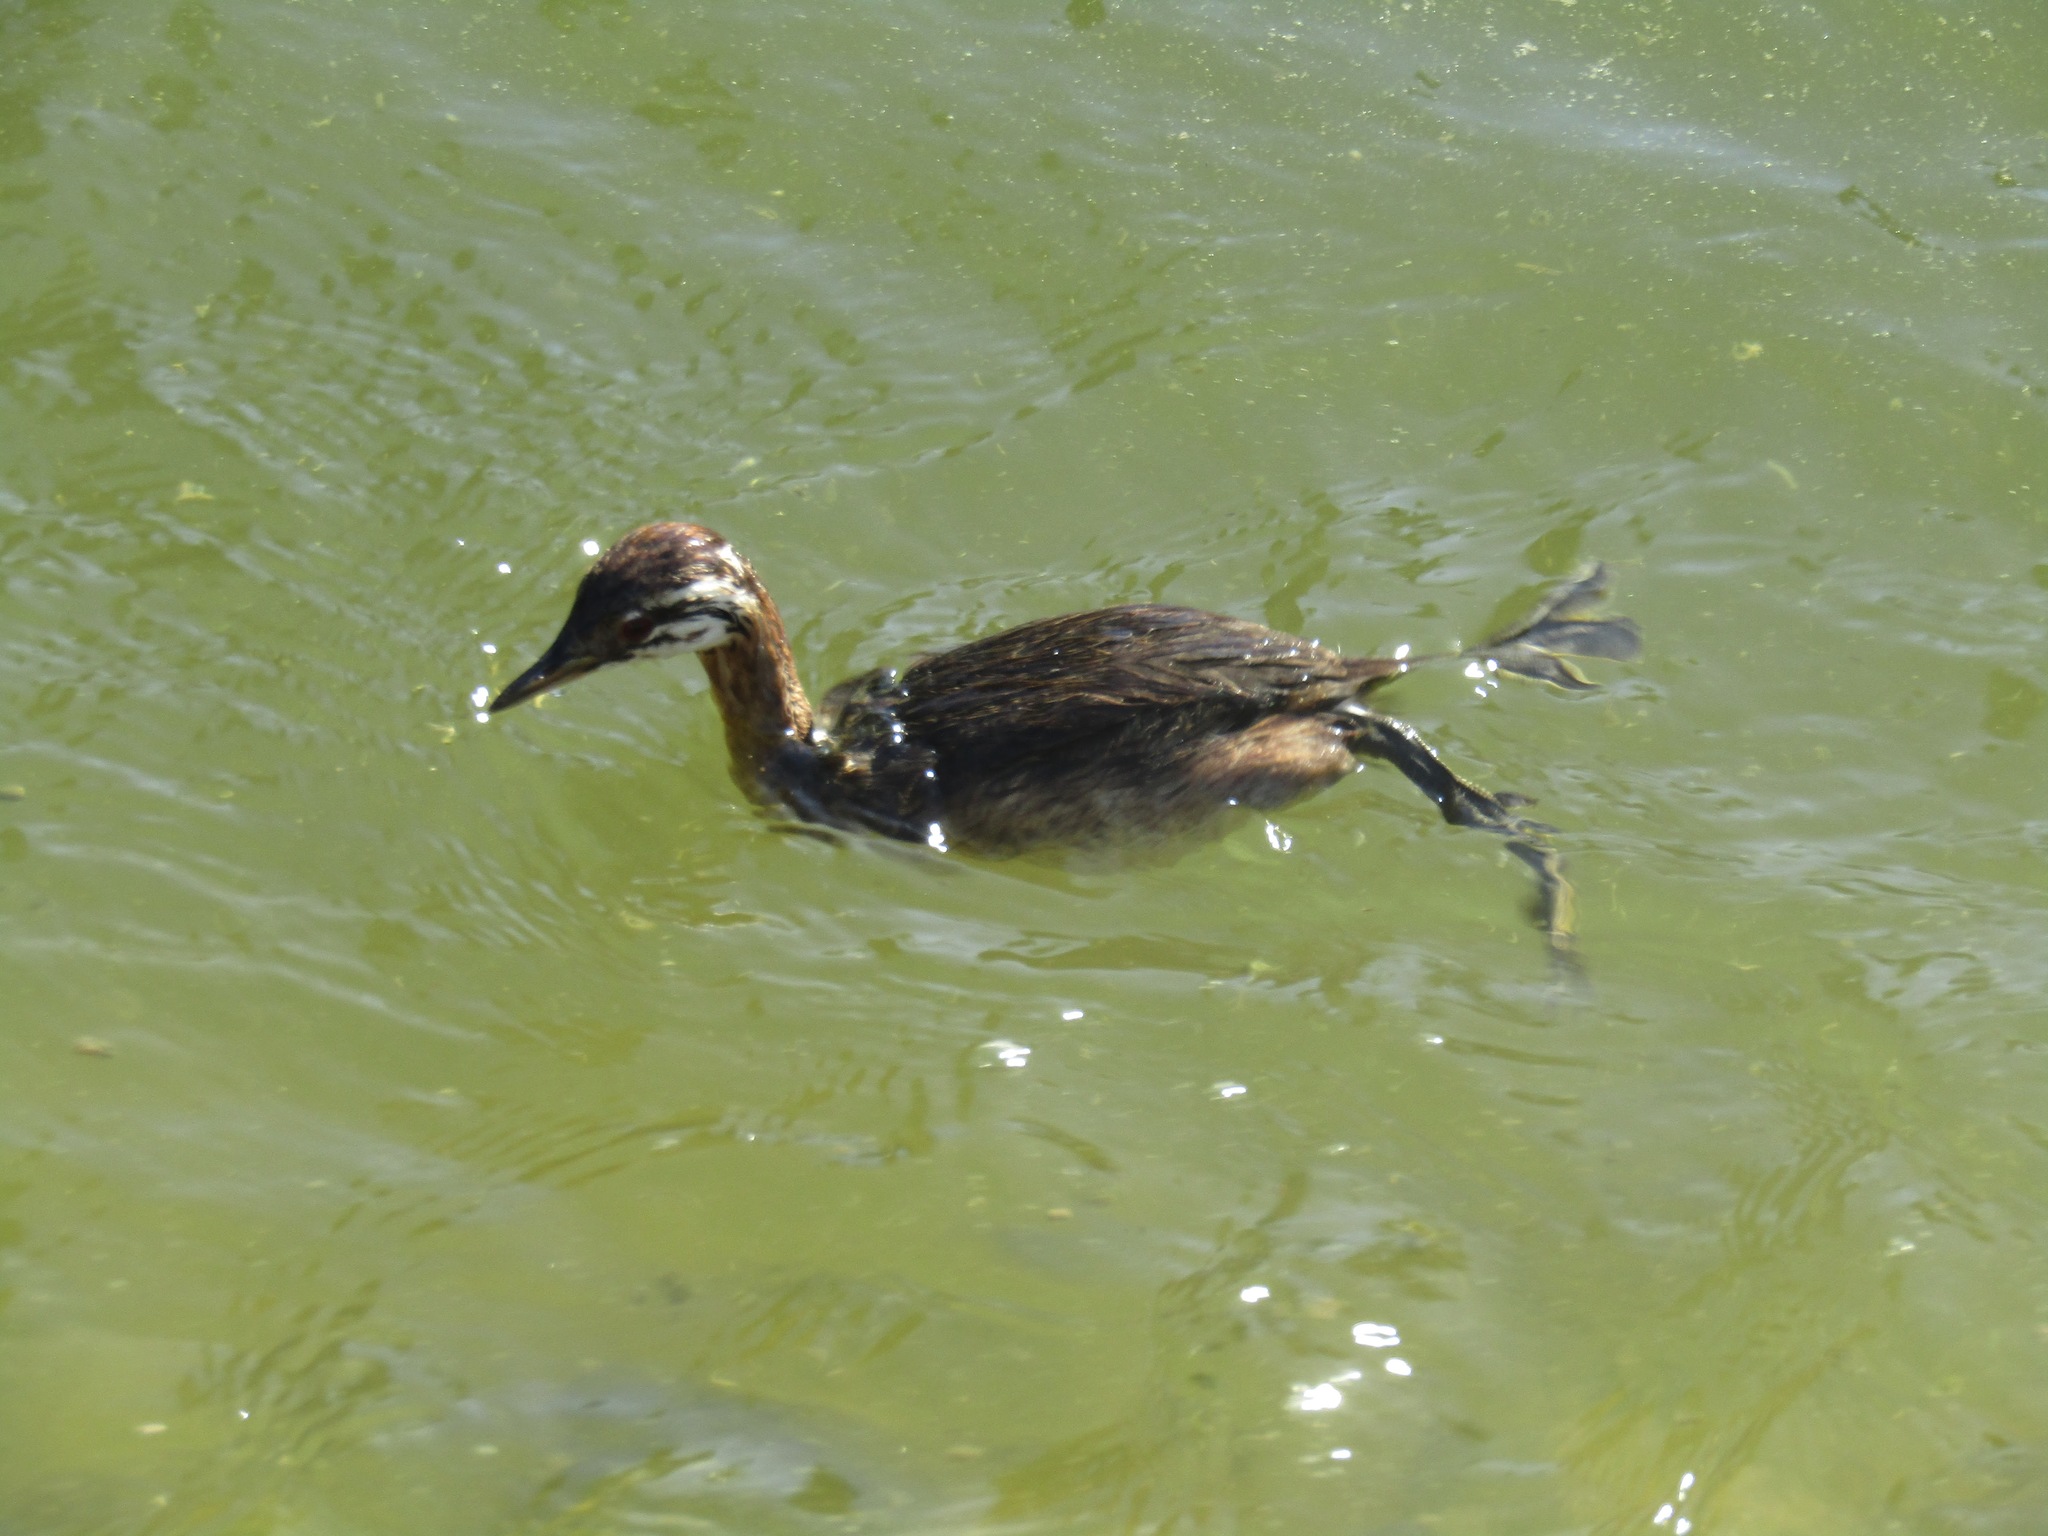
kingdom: Animalia
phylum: Chordata
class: Aves
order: Podicipediformes
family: Podicipedidae
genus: Rollandia
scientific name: Rollandia rolland
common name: White-tufted grebe
